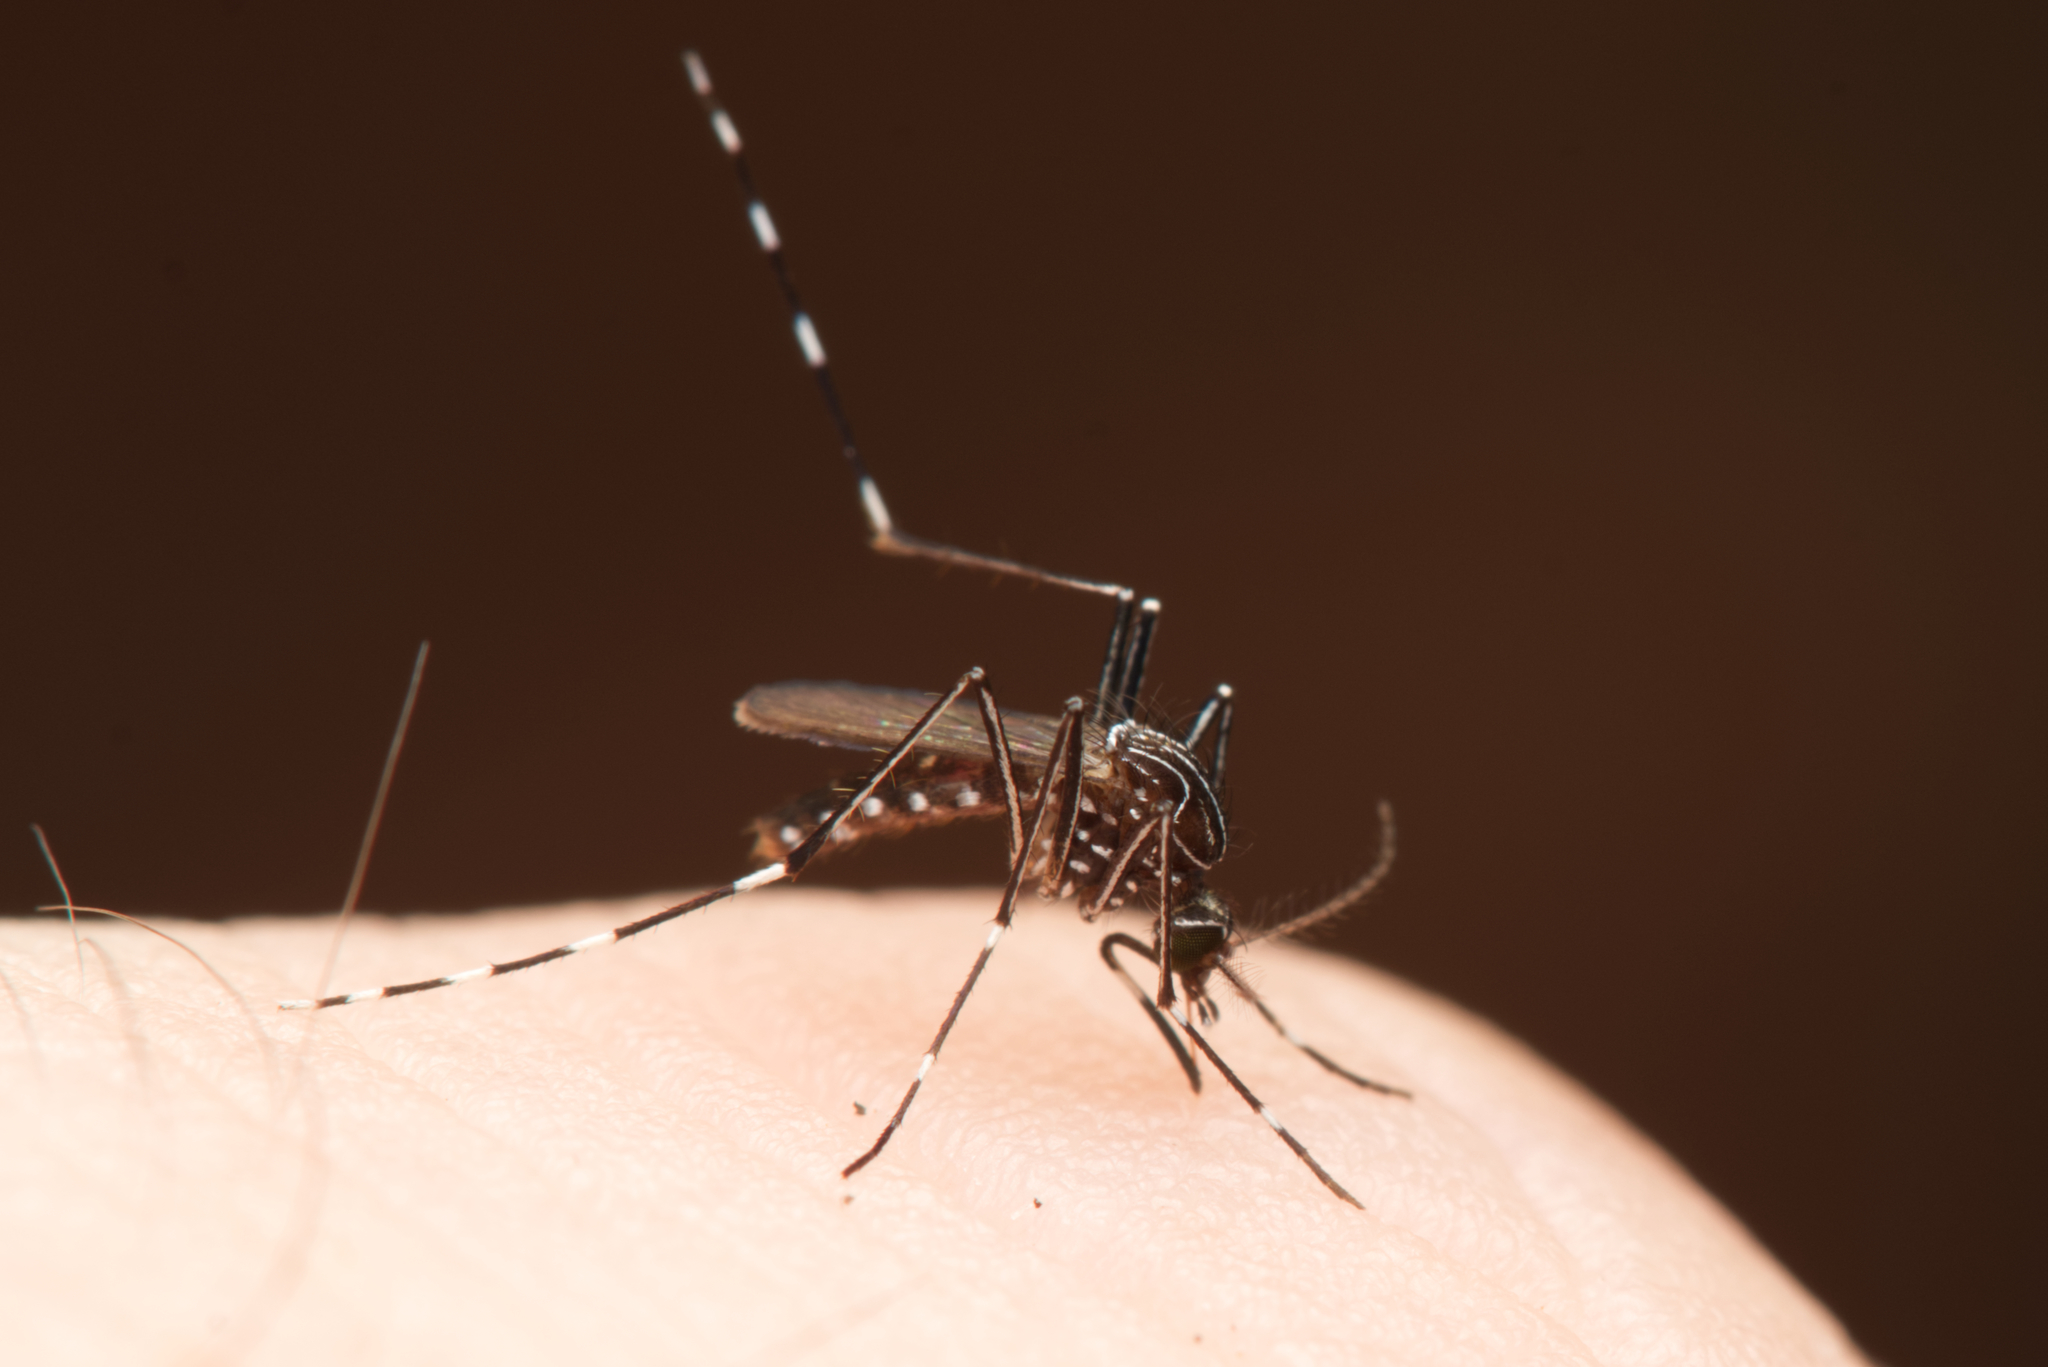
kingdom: Animalia
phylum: Arthropoda
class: Insecta
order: Diptera
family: Culicidae
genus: Aedes
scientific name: Aedes notoscriptus
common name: Australian backyard mosquito
